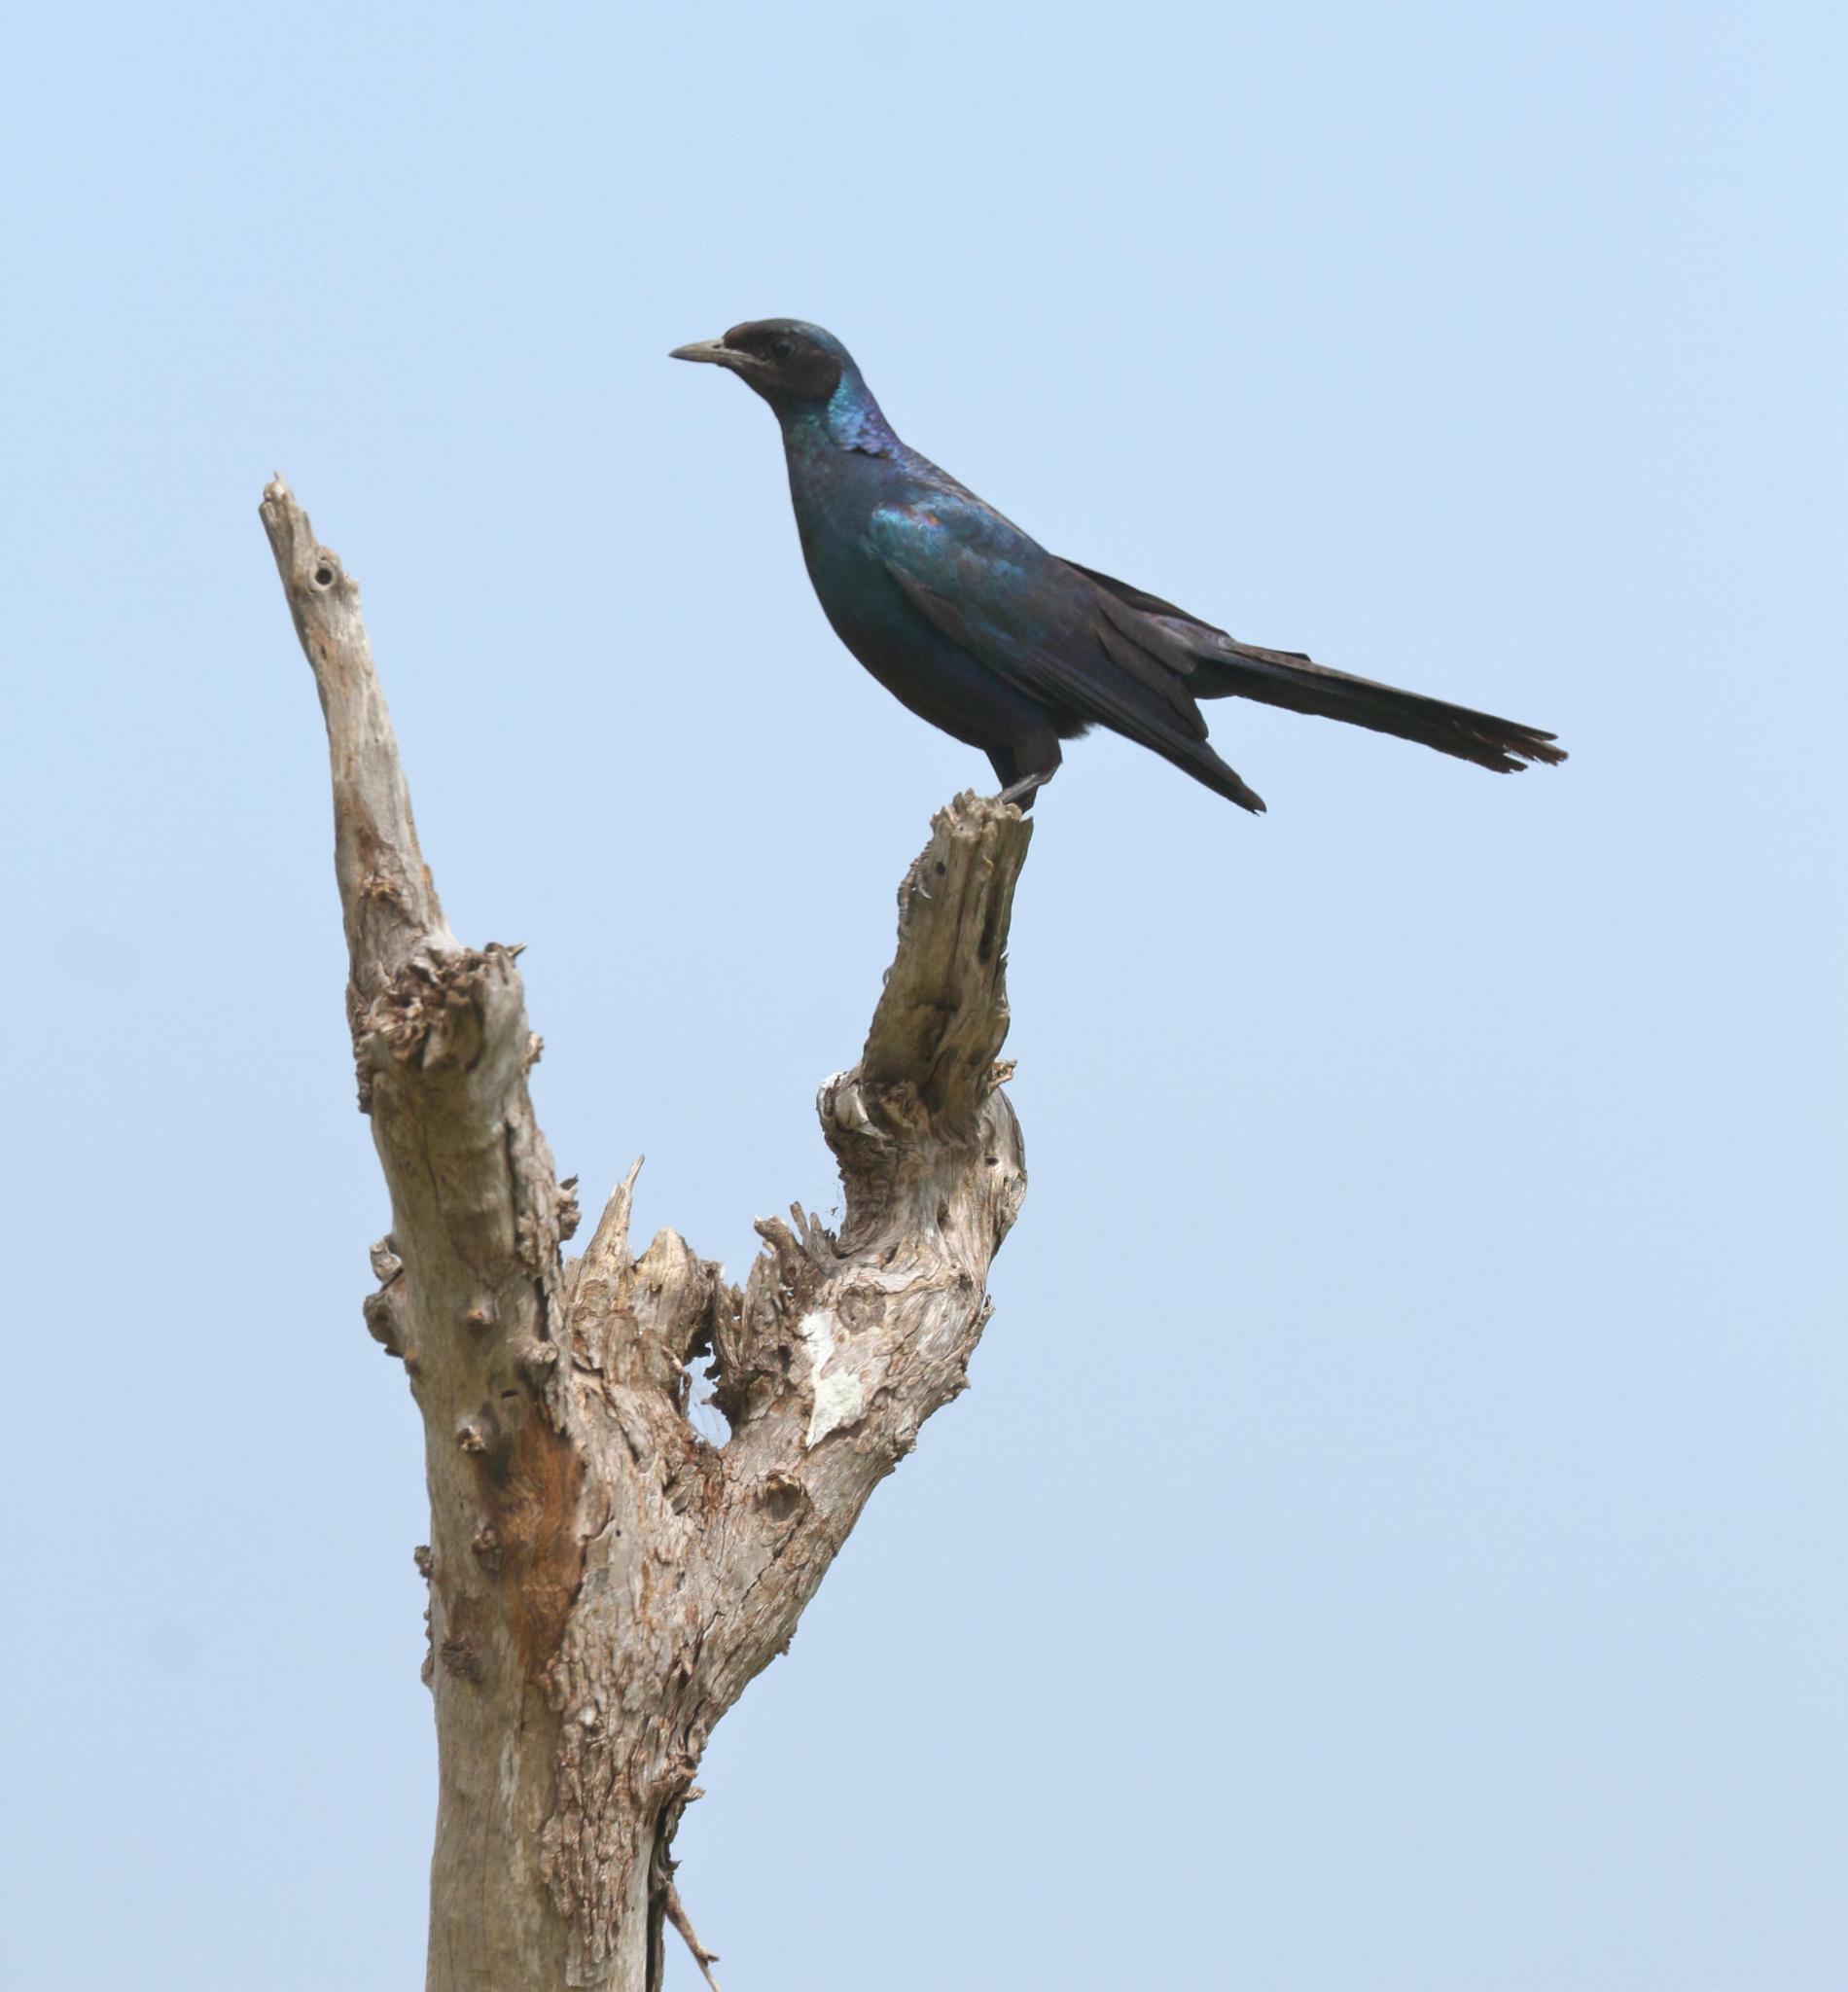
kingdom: Animalia
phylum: Chordata
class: Aves
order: Passeriformes
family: Sturnidae
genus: Lamprotornis
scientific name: Lamprotornis australis
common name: Burchell's starling
